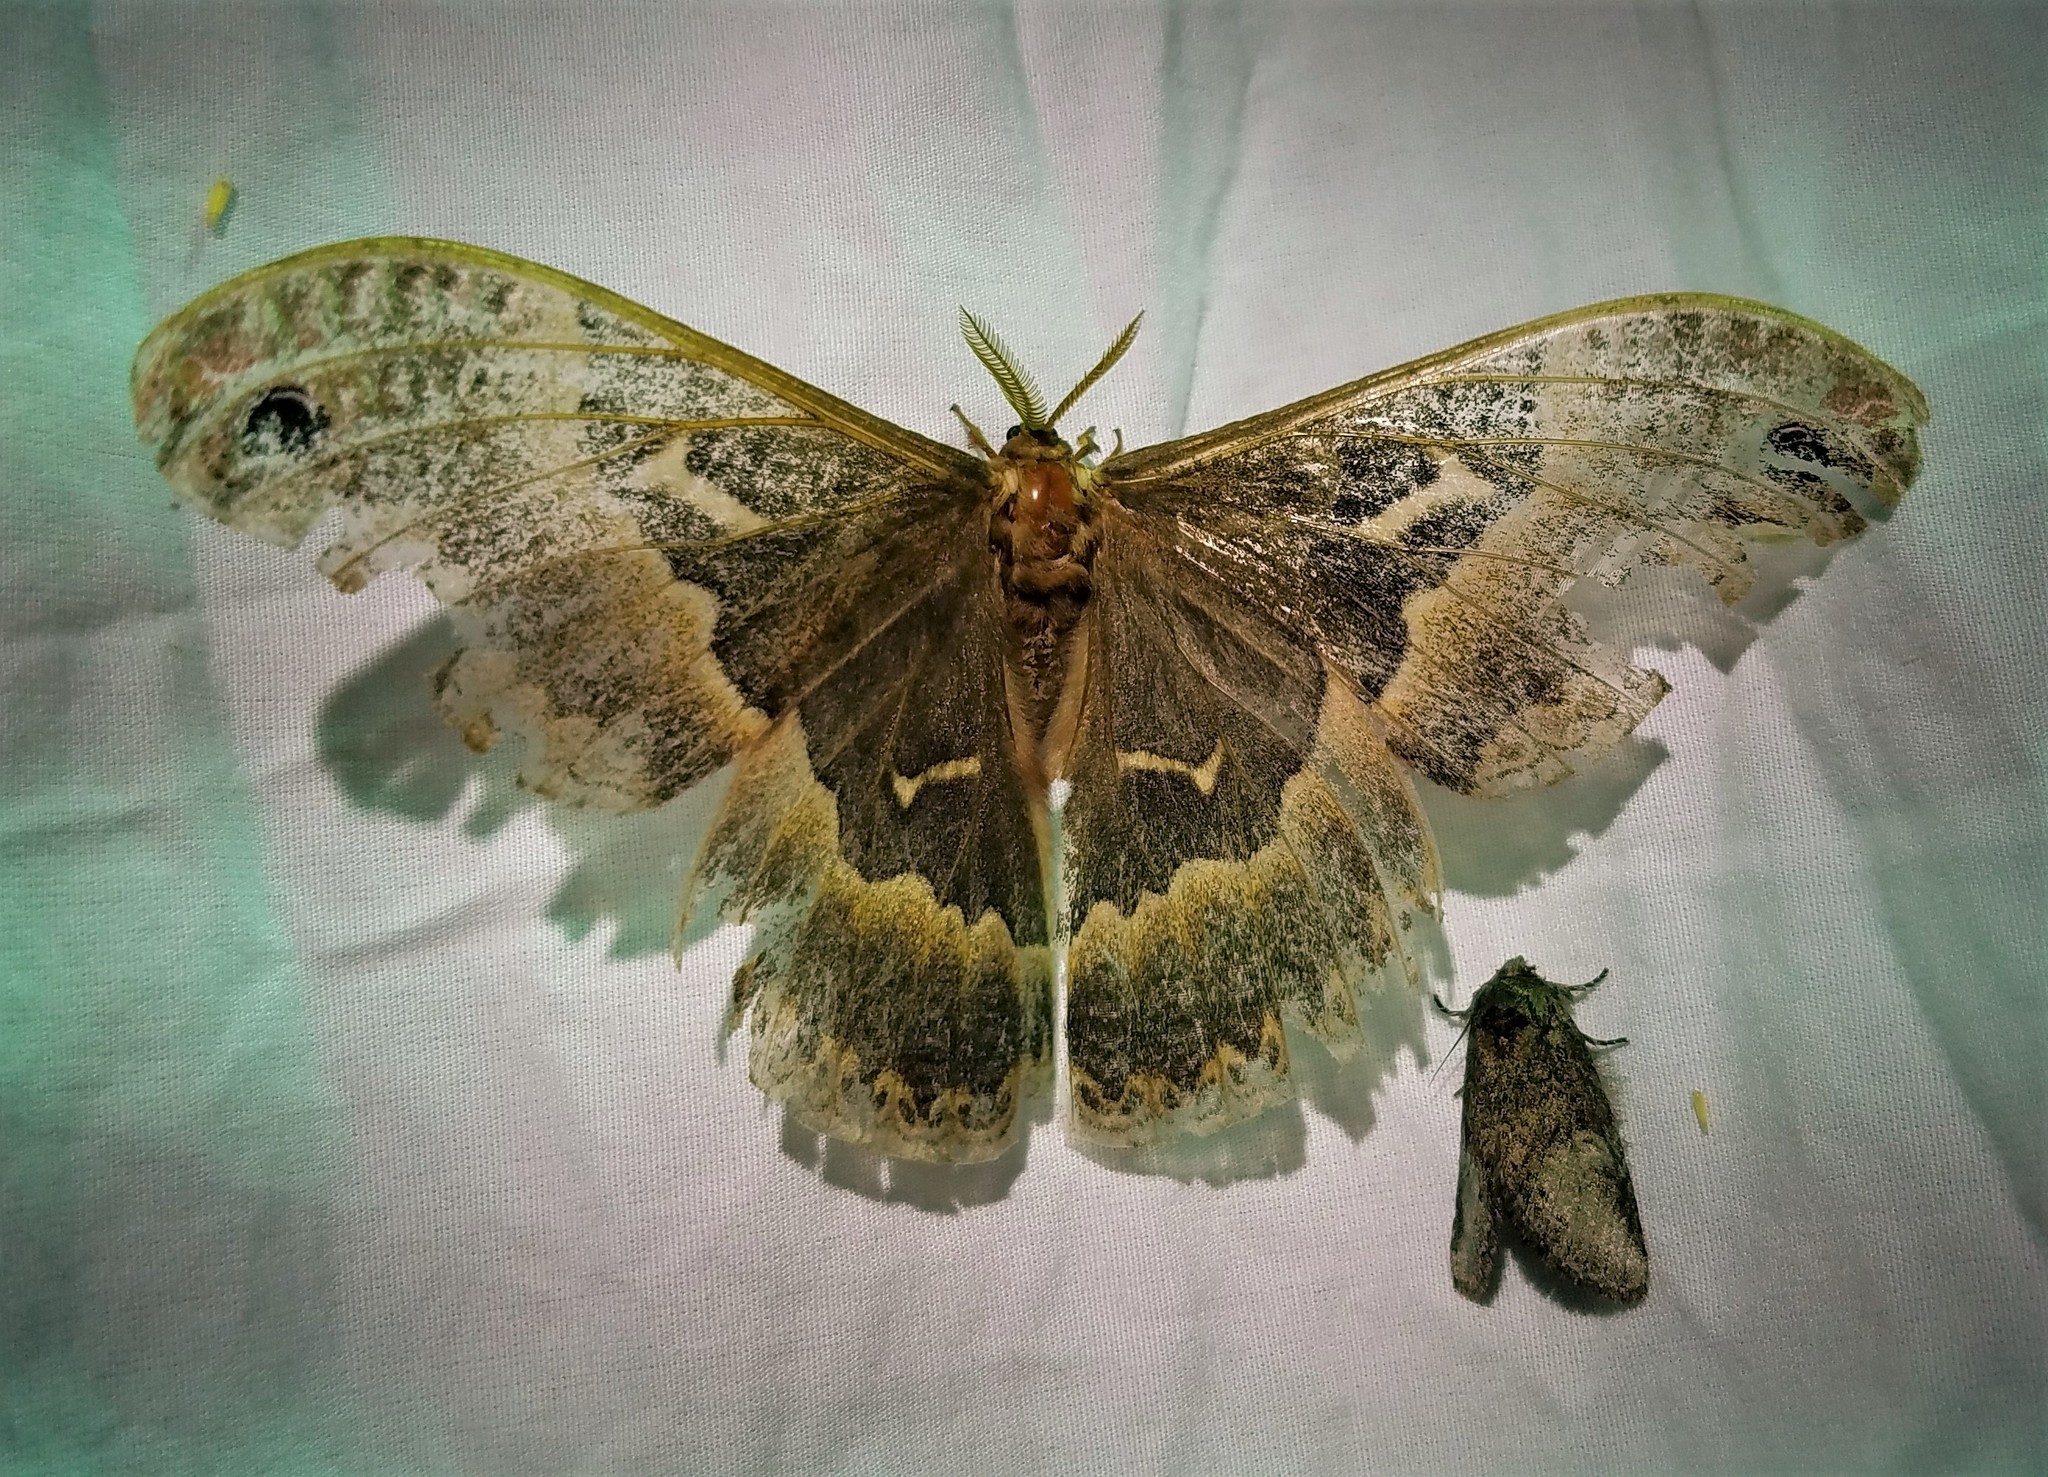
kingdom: Animalia
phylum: Arthropoda
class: Insecta
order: Lepidoptera
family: Saturniidae
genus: Callosamia
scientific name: Callosamia angulifera
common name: Tulip tree silkmoth
